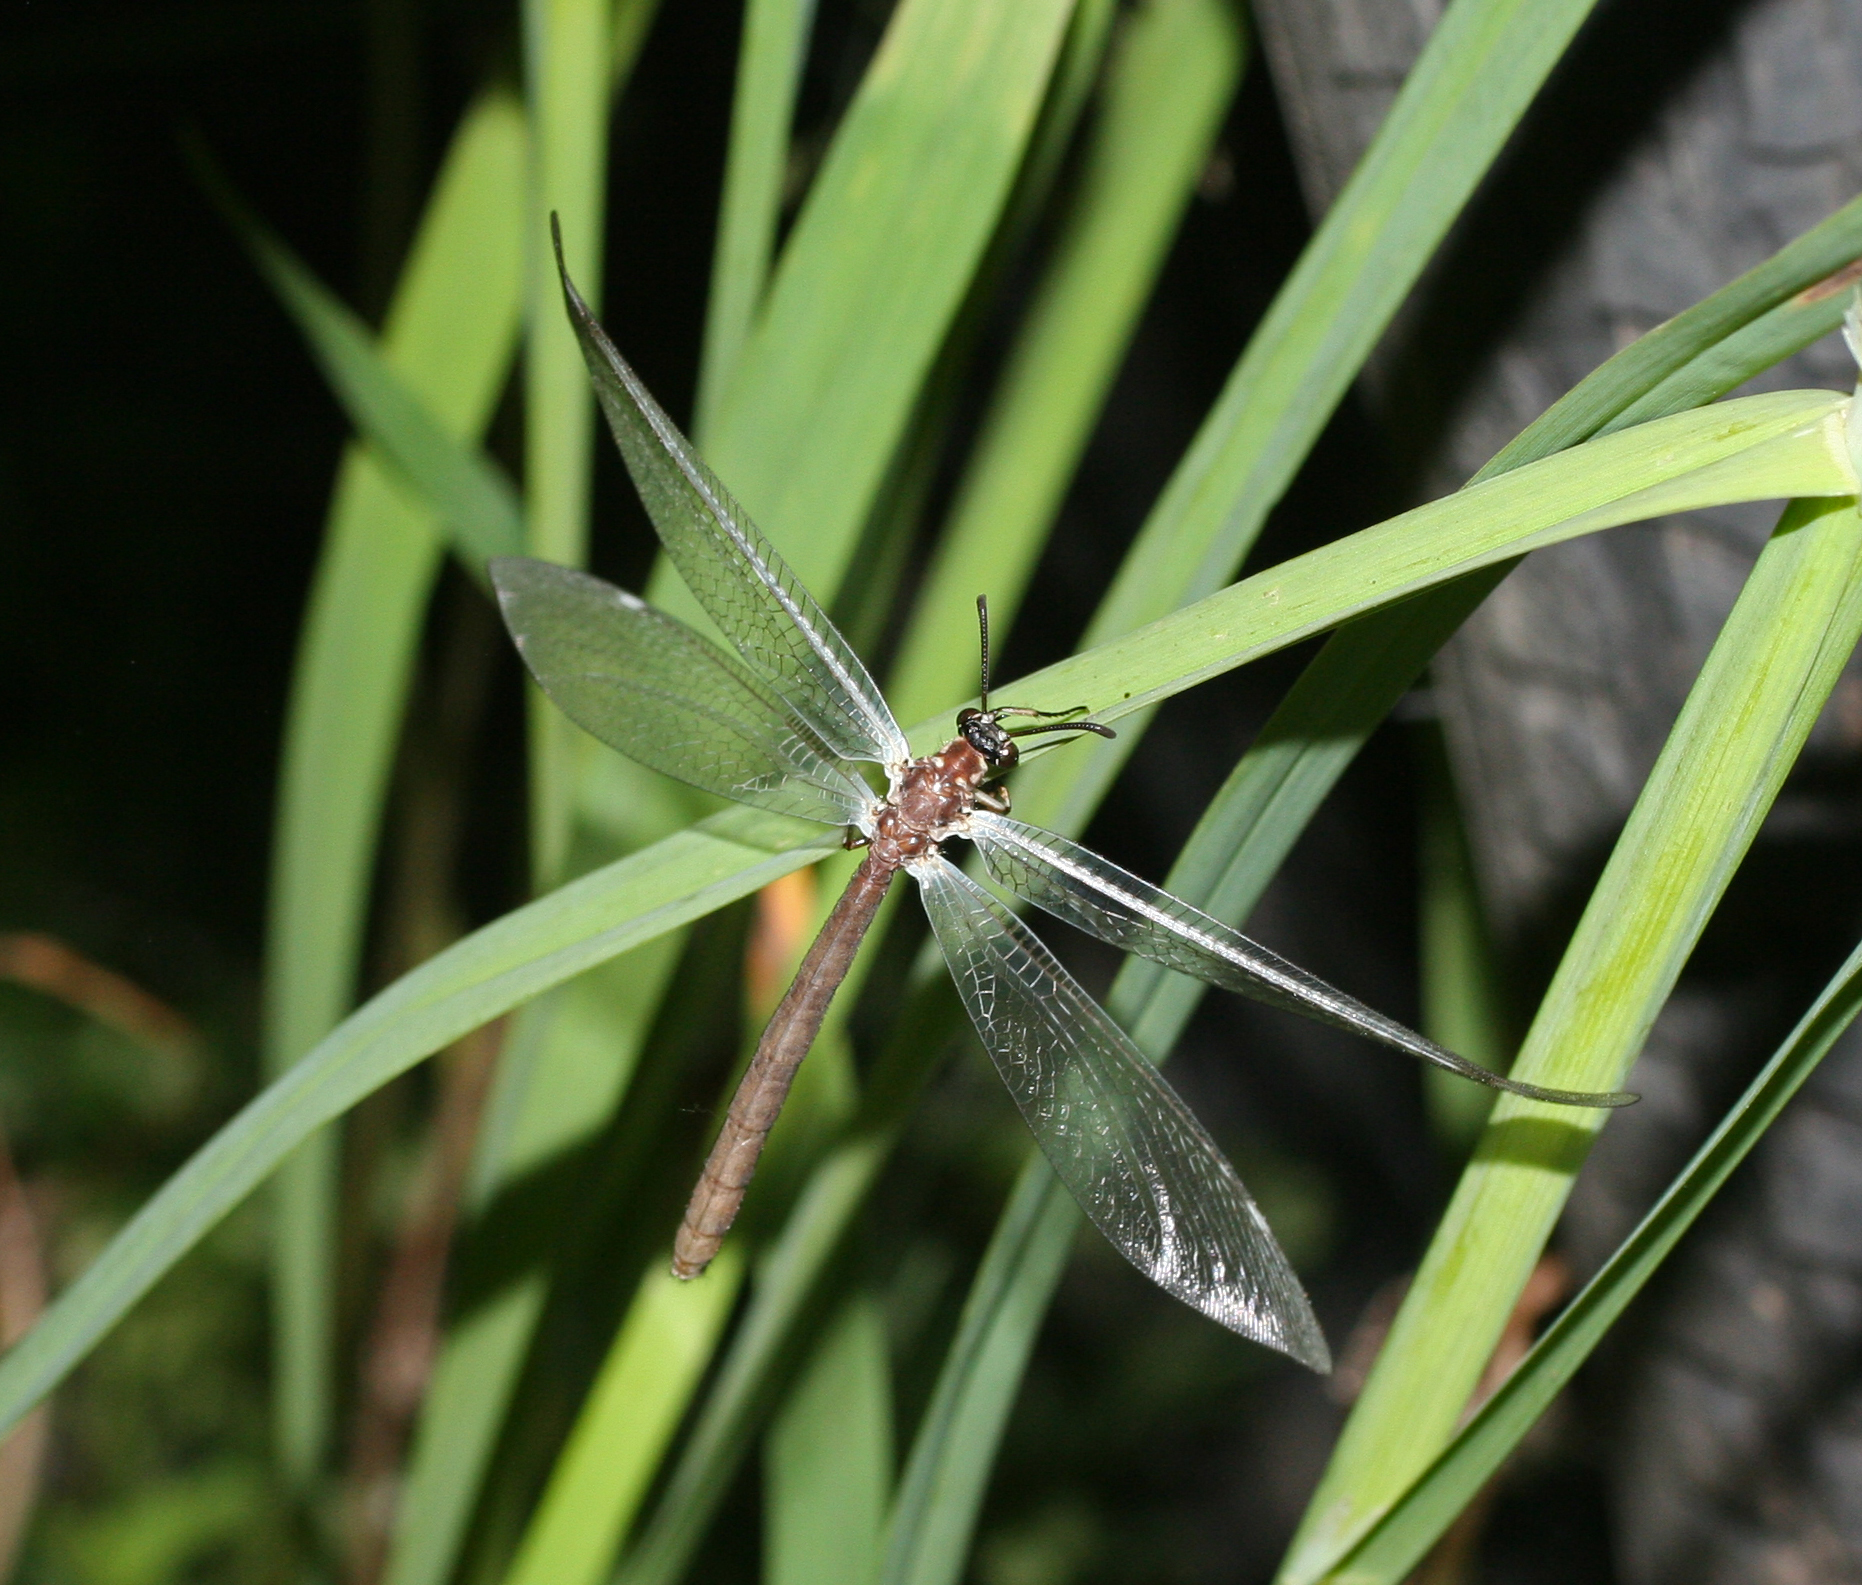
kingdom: Animalia
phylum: Arthropoda
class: Insecta
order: Neuroptera
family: Myrmeleontidae
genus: Myrmeleon
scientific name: Myrmeleon formicarius
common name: Ant-lion
